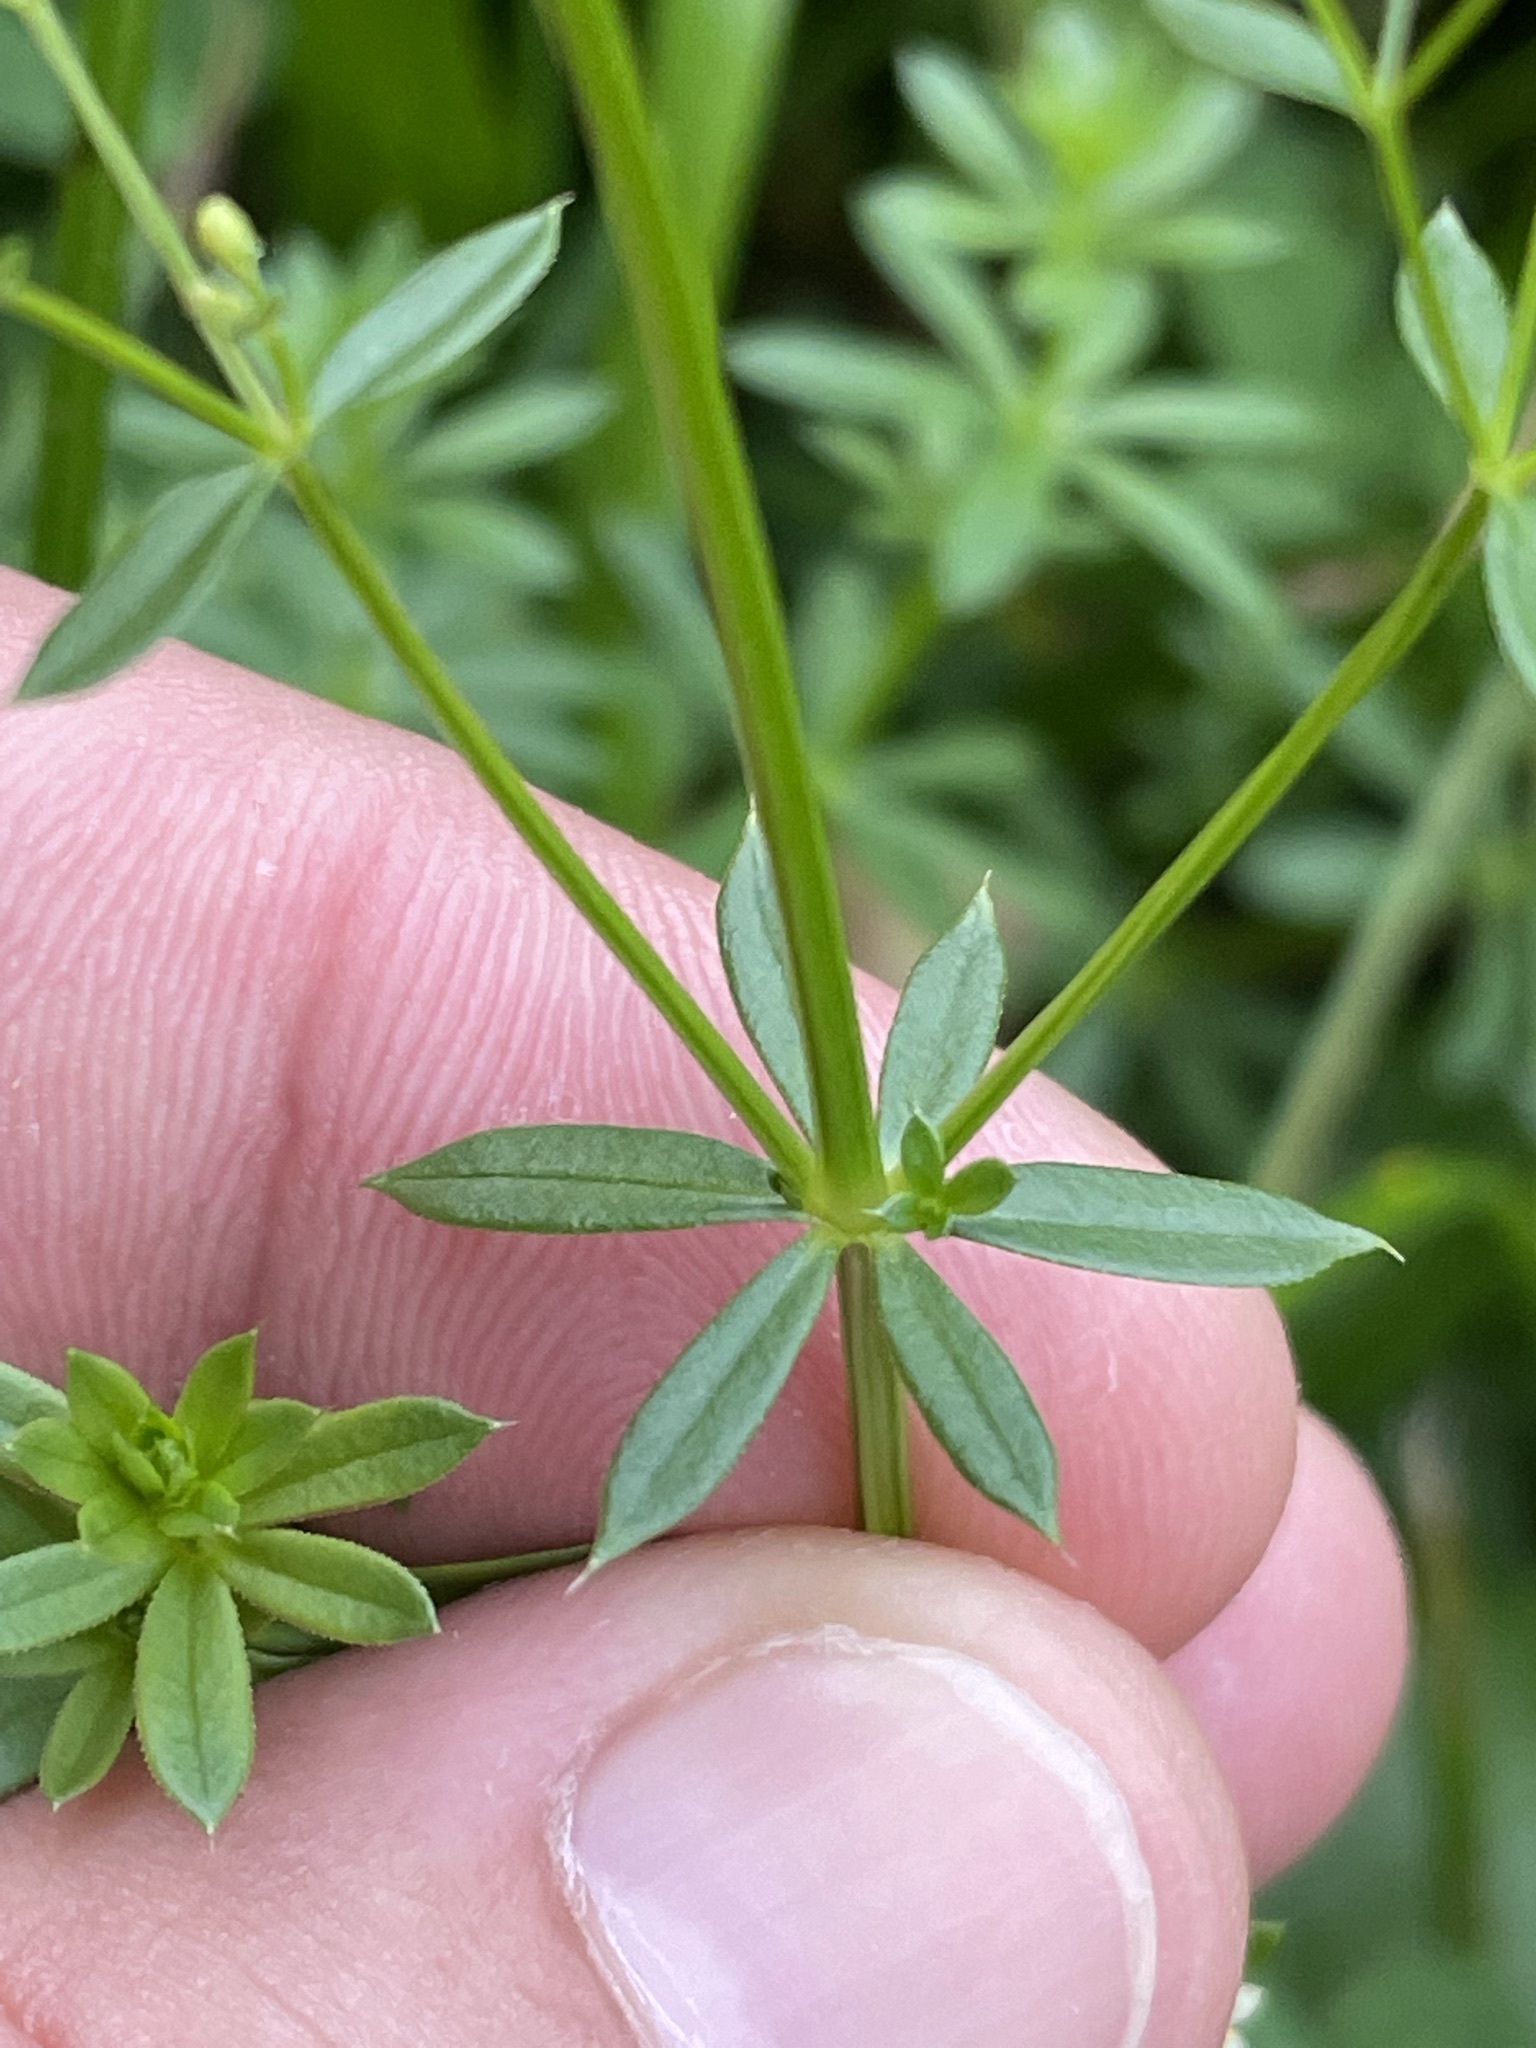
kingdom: Plantae
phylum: Tracheophyta
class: Magnoliopsida
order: Gentianales
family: Rubiaceae
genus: Galium
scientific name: Galium album
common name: White bedstraw
